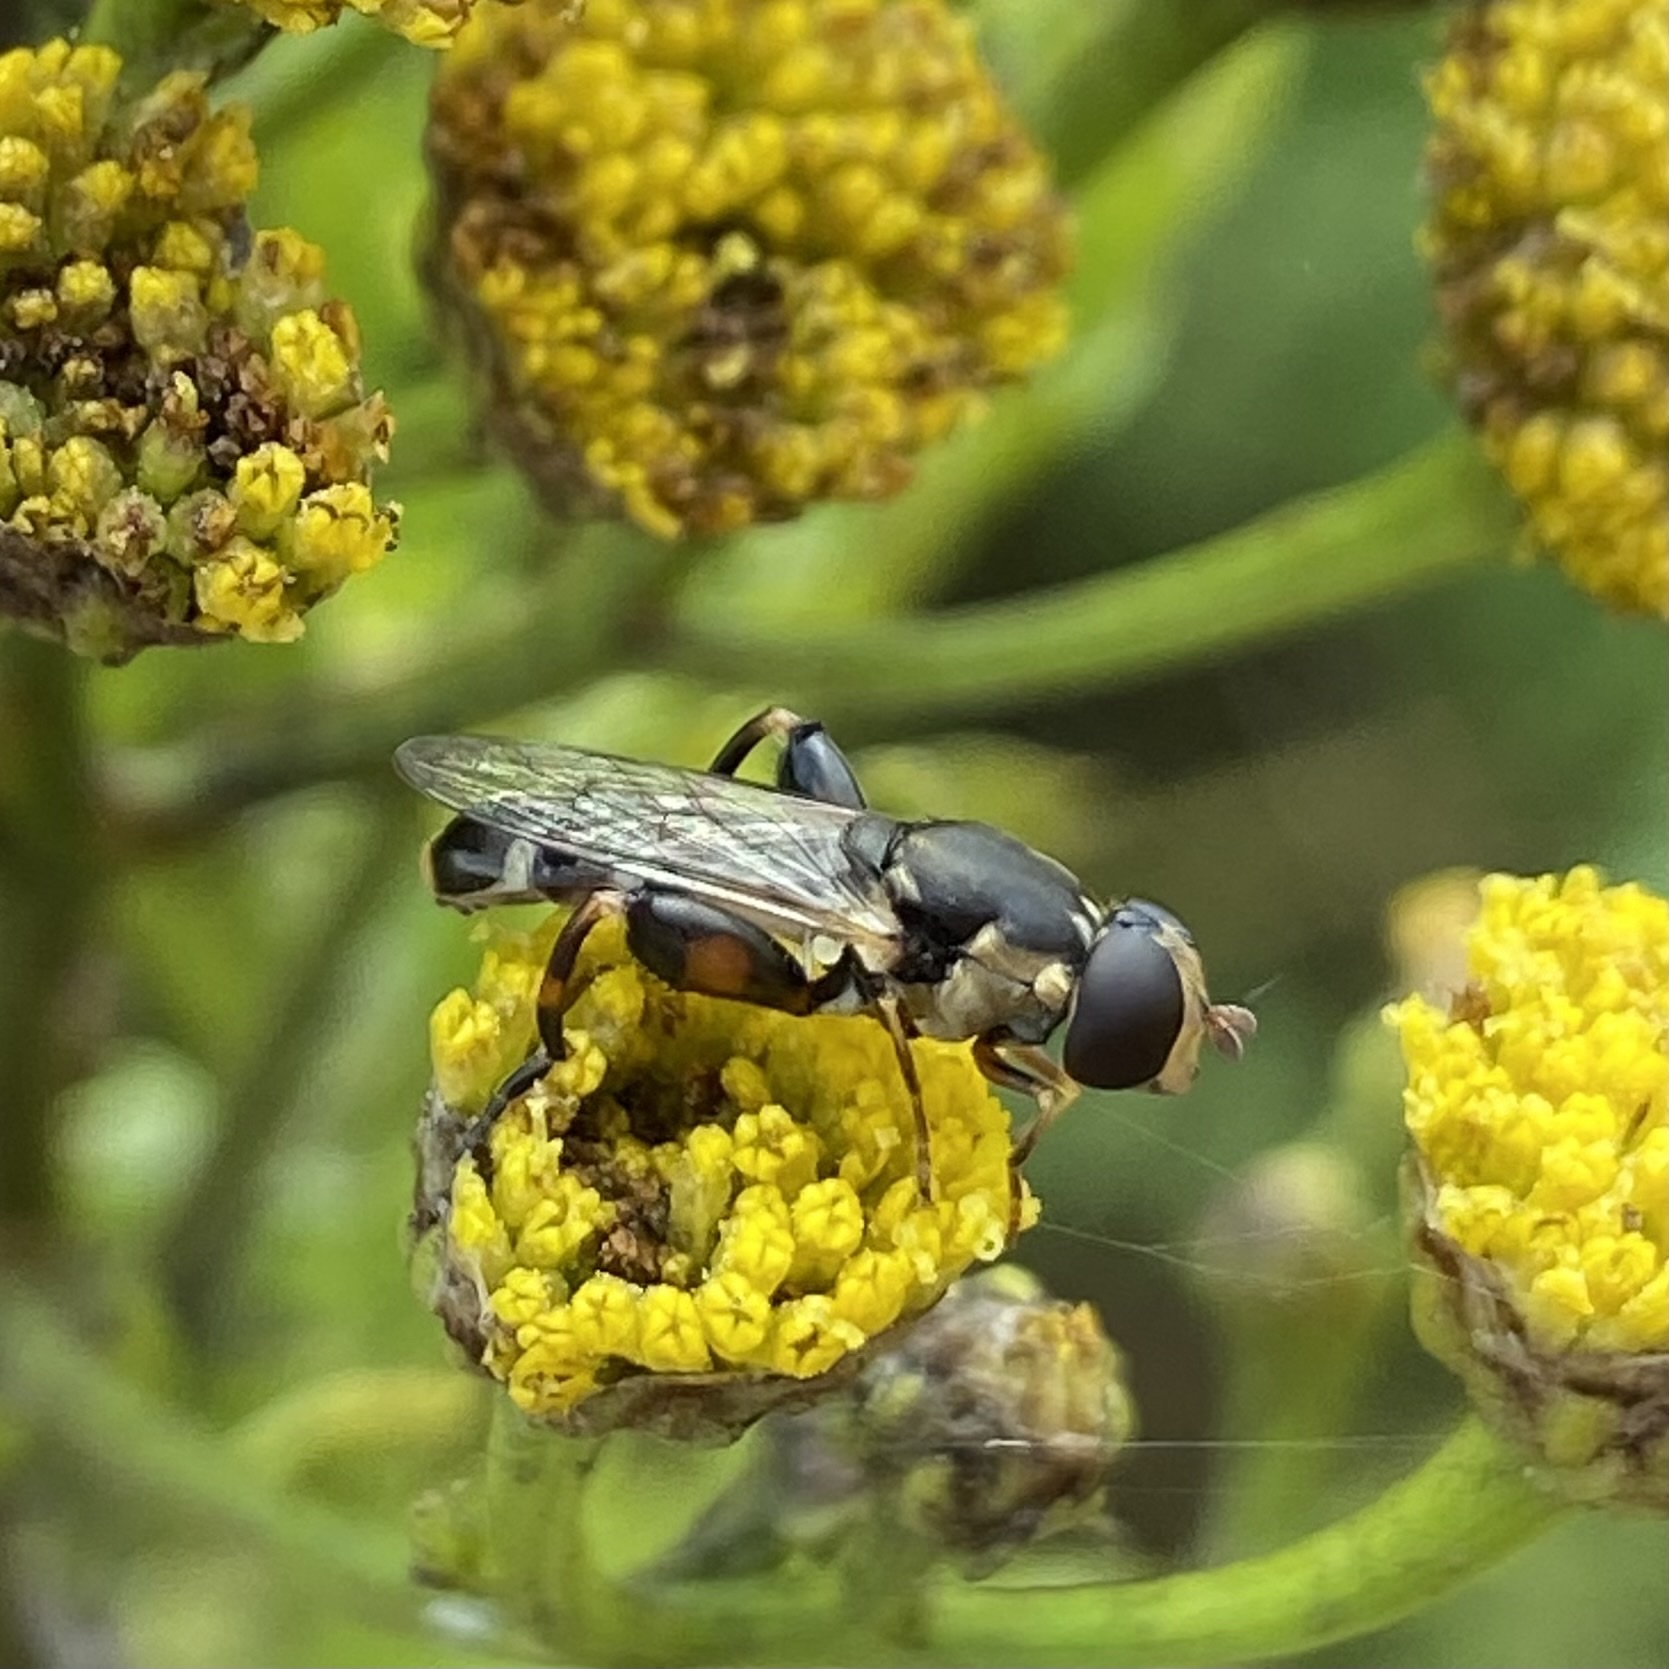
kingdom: Animalia
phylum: Arthropoda
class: Insecta
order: Diptera
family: Syrphidae
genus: Syritta
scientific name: Syritta pipiens
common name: Hover fly
